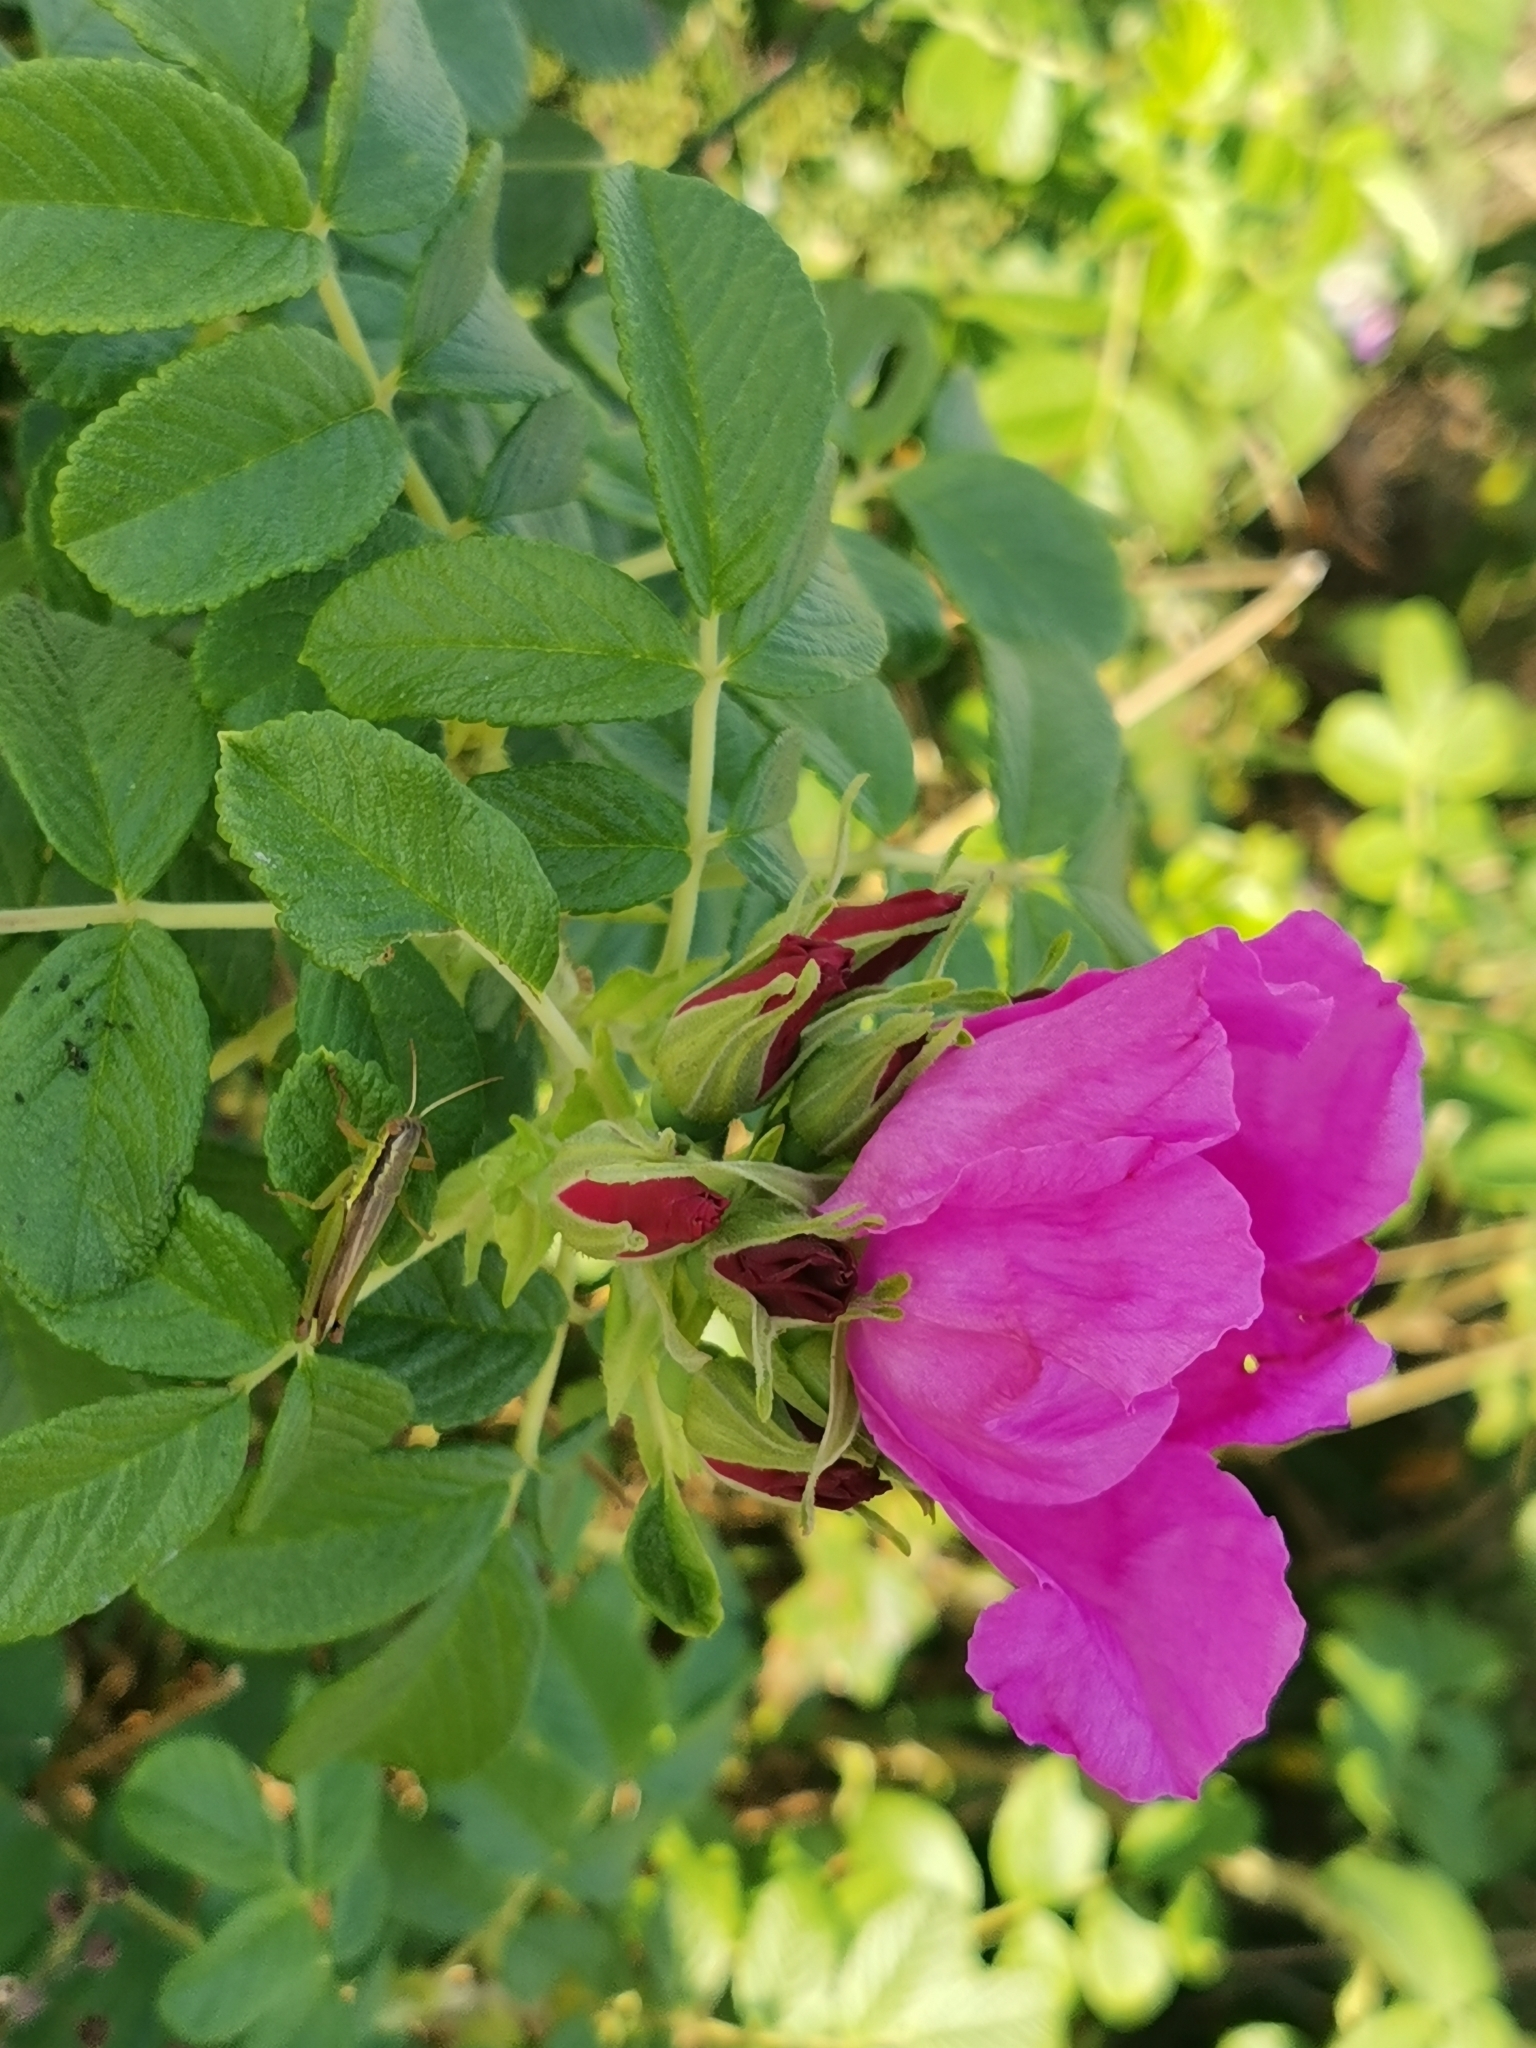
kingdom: Plantae
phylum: Tracheophyta
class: Magnoliopsida
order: Rosales
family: Rosaceae
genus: Rosa
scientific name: Rosa rugosa
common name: Japanese rose
